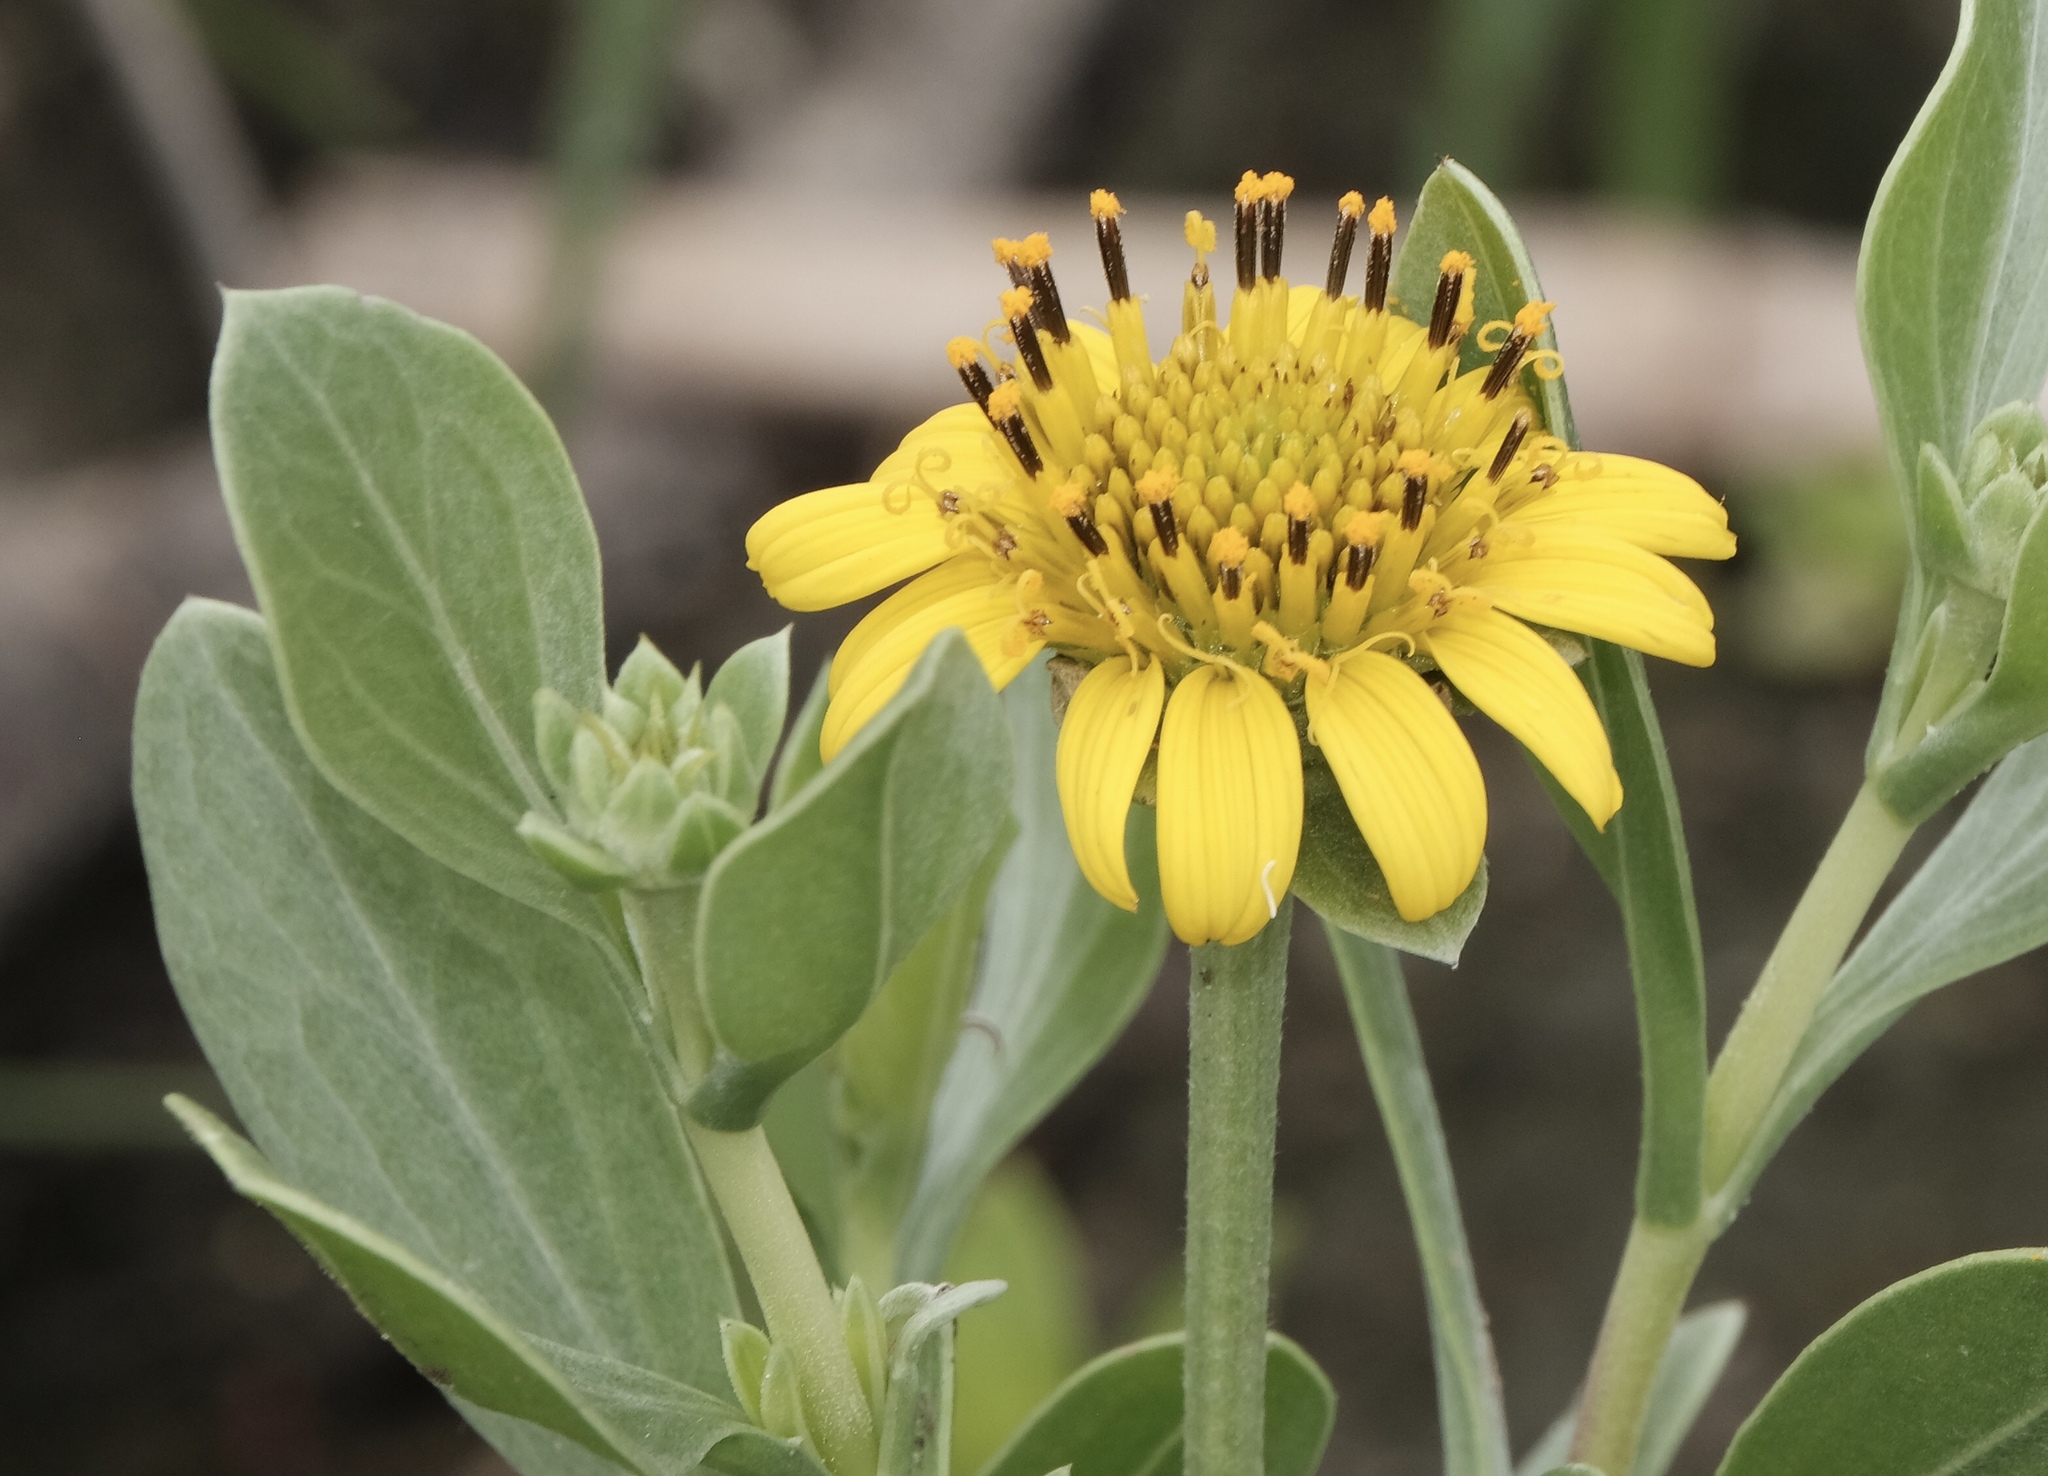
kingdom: Plantae
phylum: Tracheophyta
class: Magnoliopsida
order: Asterales
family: Asteraceae
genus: Borrichia
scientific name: Borrichia frutescens
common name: Sea oxeye
